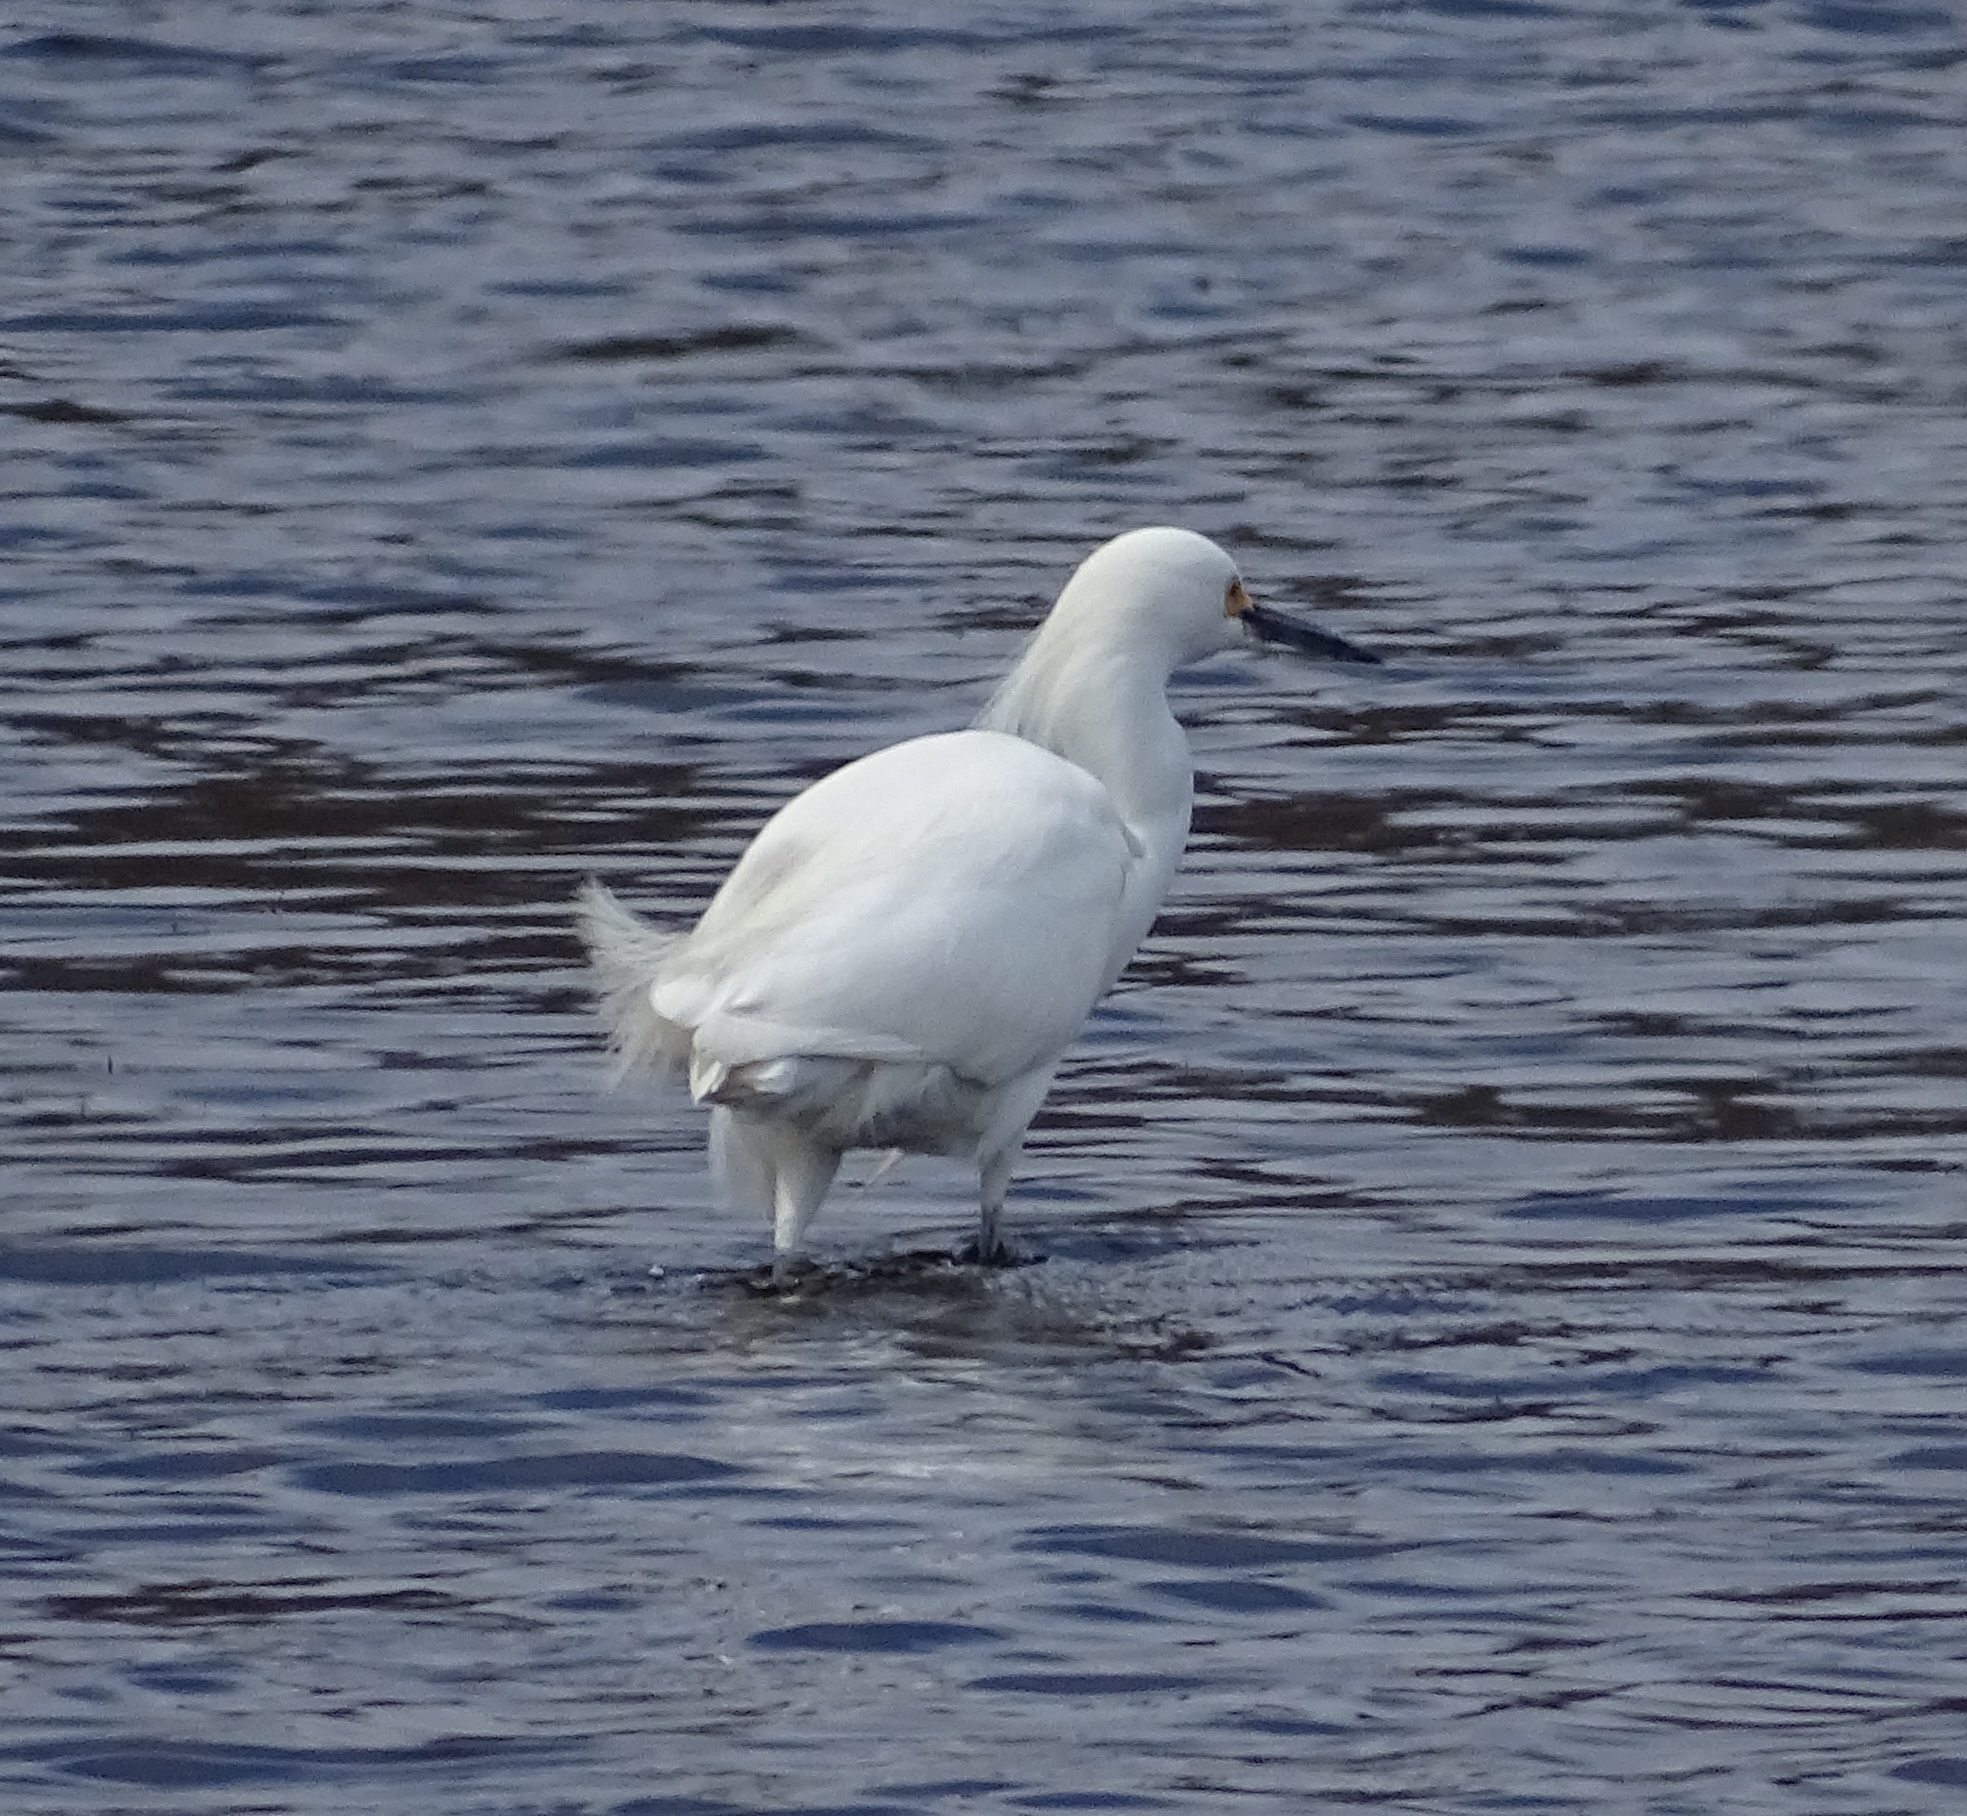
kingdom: Animalia
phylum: Chordata
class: Aves
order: Pelecaniformes
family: Ardeidae
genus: Egretta
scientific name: Egretta thula
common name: Snowy egret
